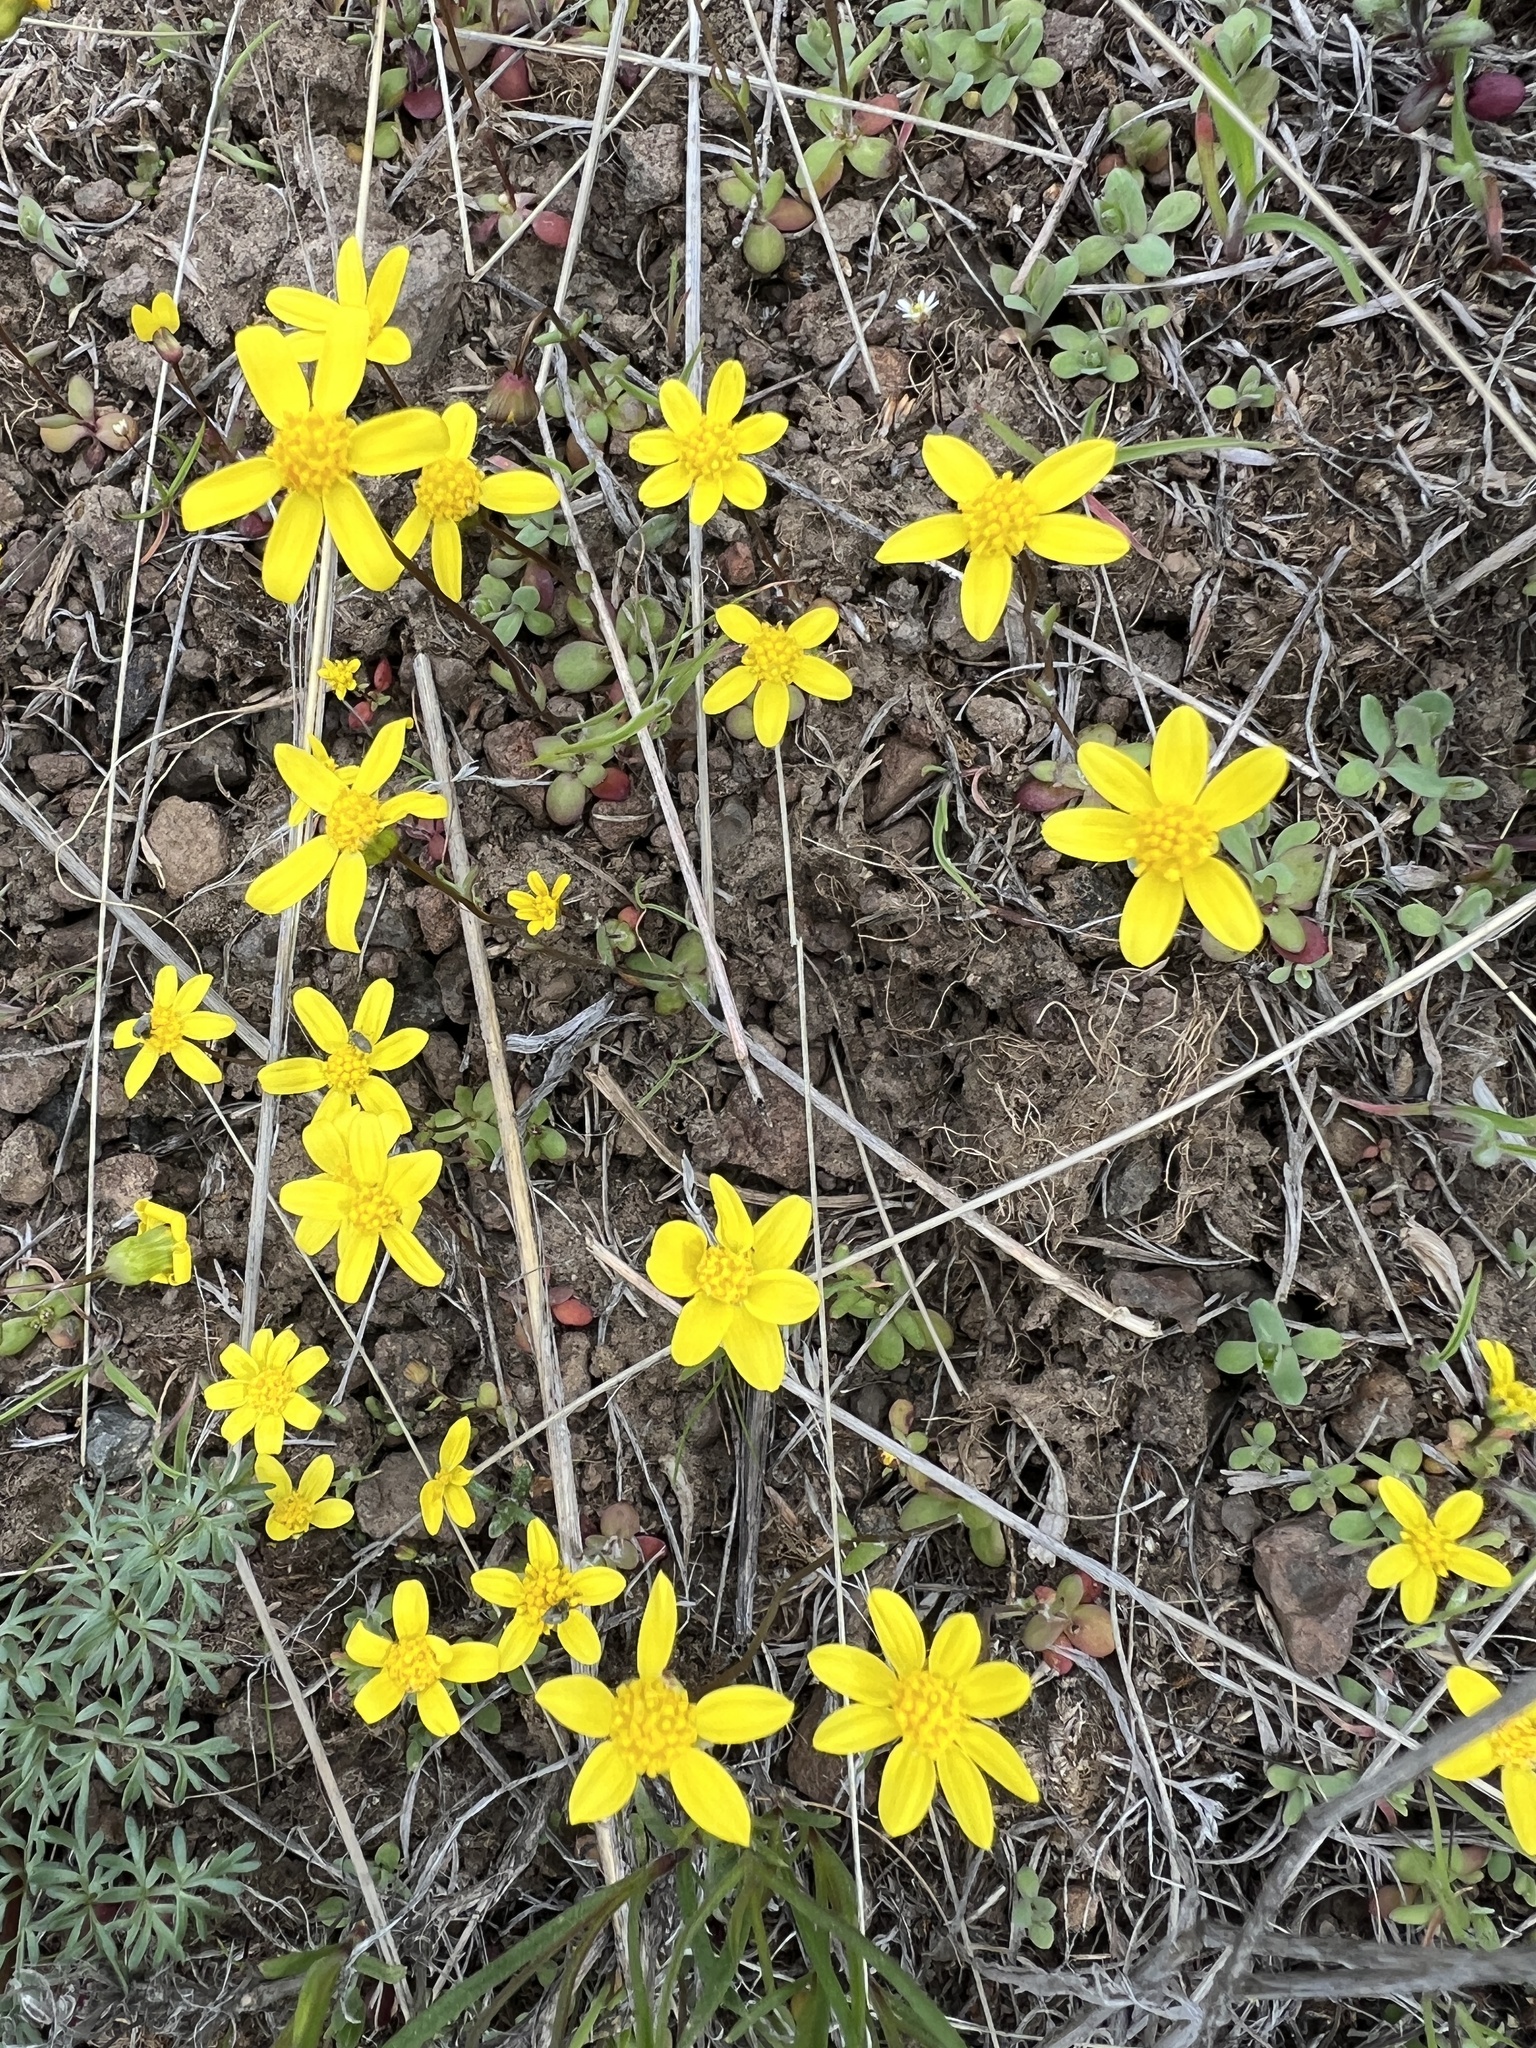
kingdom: Plantae
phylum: Tracheophyta
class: Magnoliopsida
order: Asterales
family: Asteraceae
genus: Crocidium
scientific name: Crocidium multicaule
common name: Common spring gold
